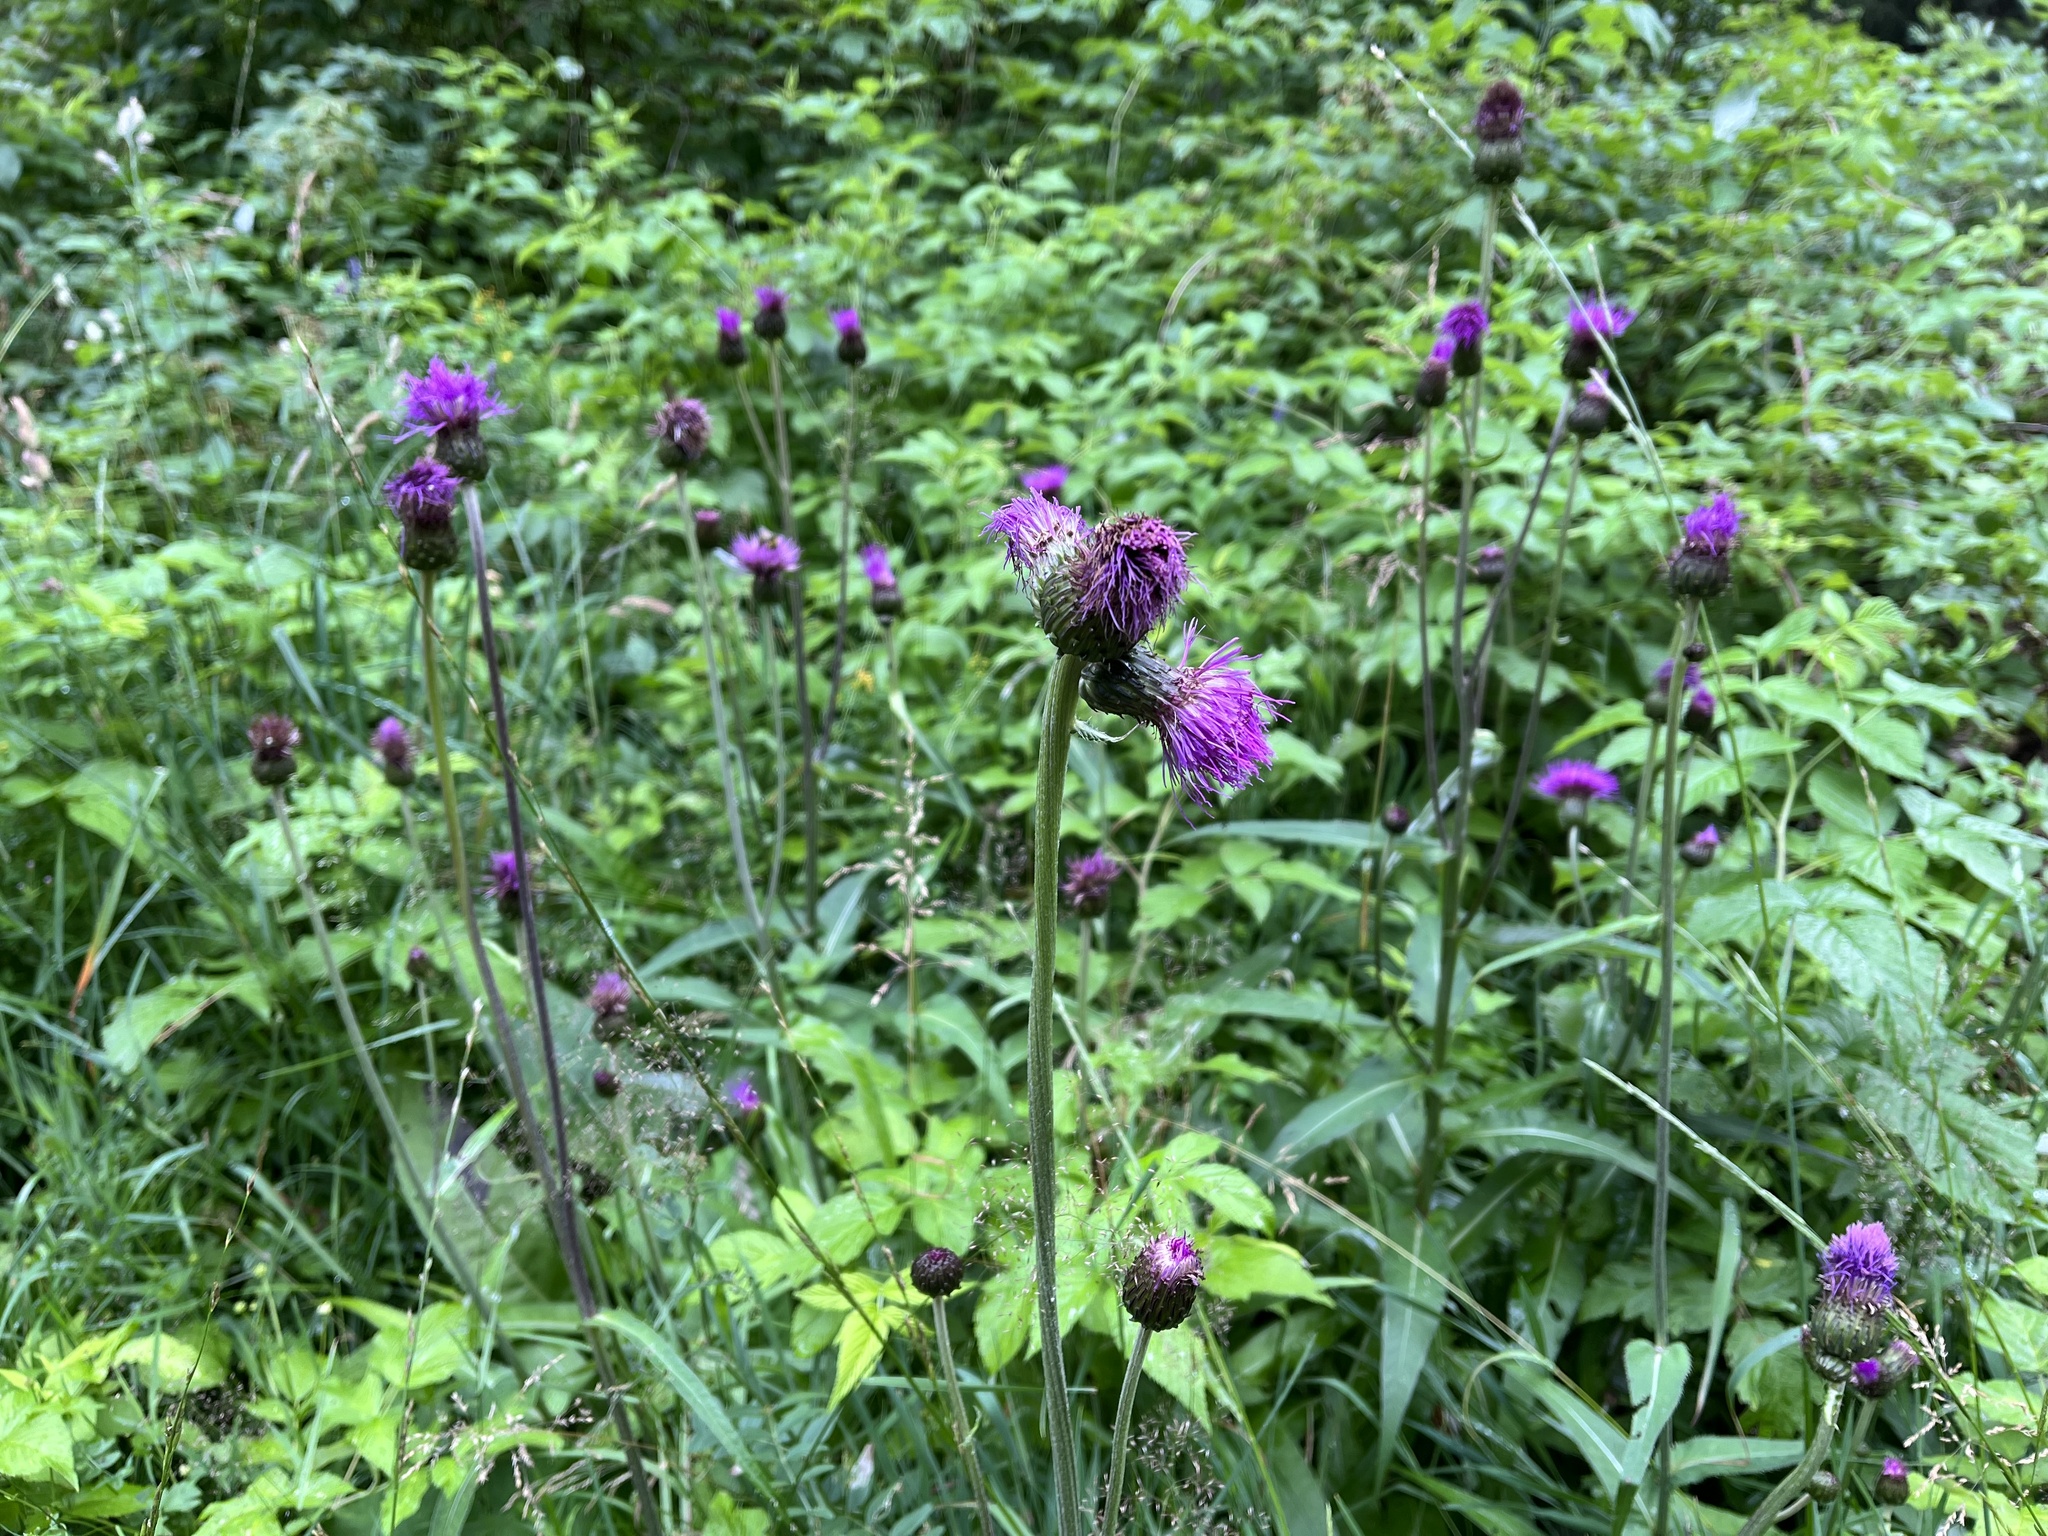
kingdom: Plantae
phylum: Tracheophyta
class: Magnoliopsida
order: Asterales
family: Asteraceae
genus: Cirsium
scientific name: Cirsium heterophyllum
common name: Melancholy thistle
